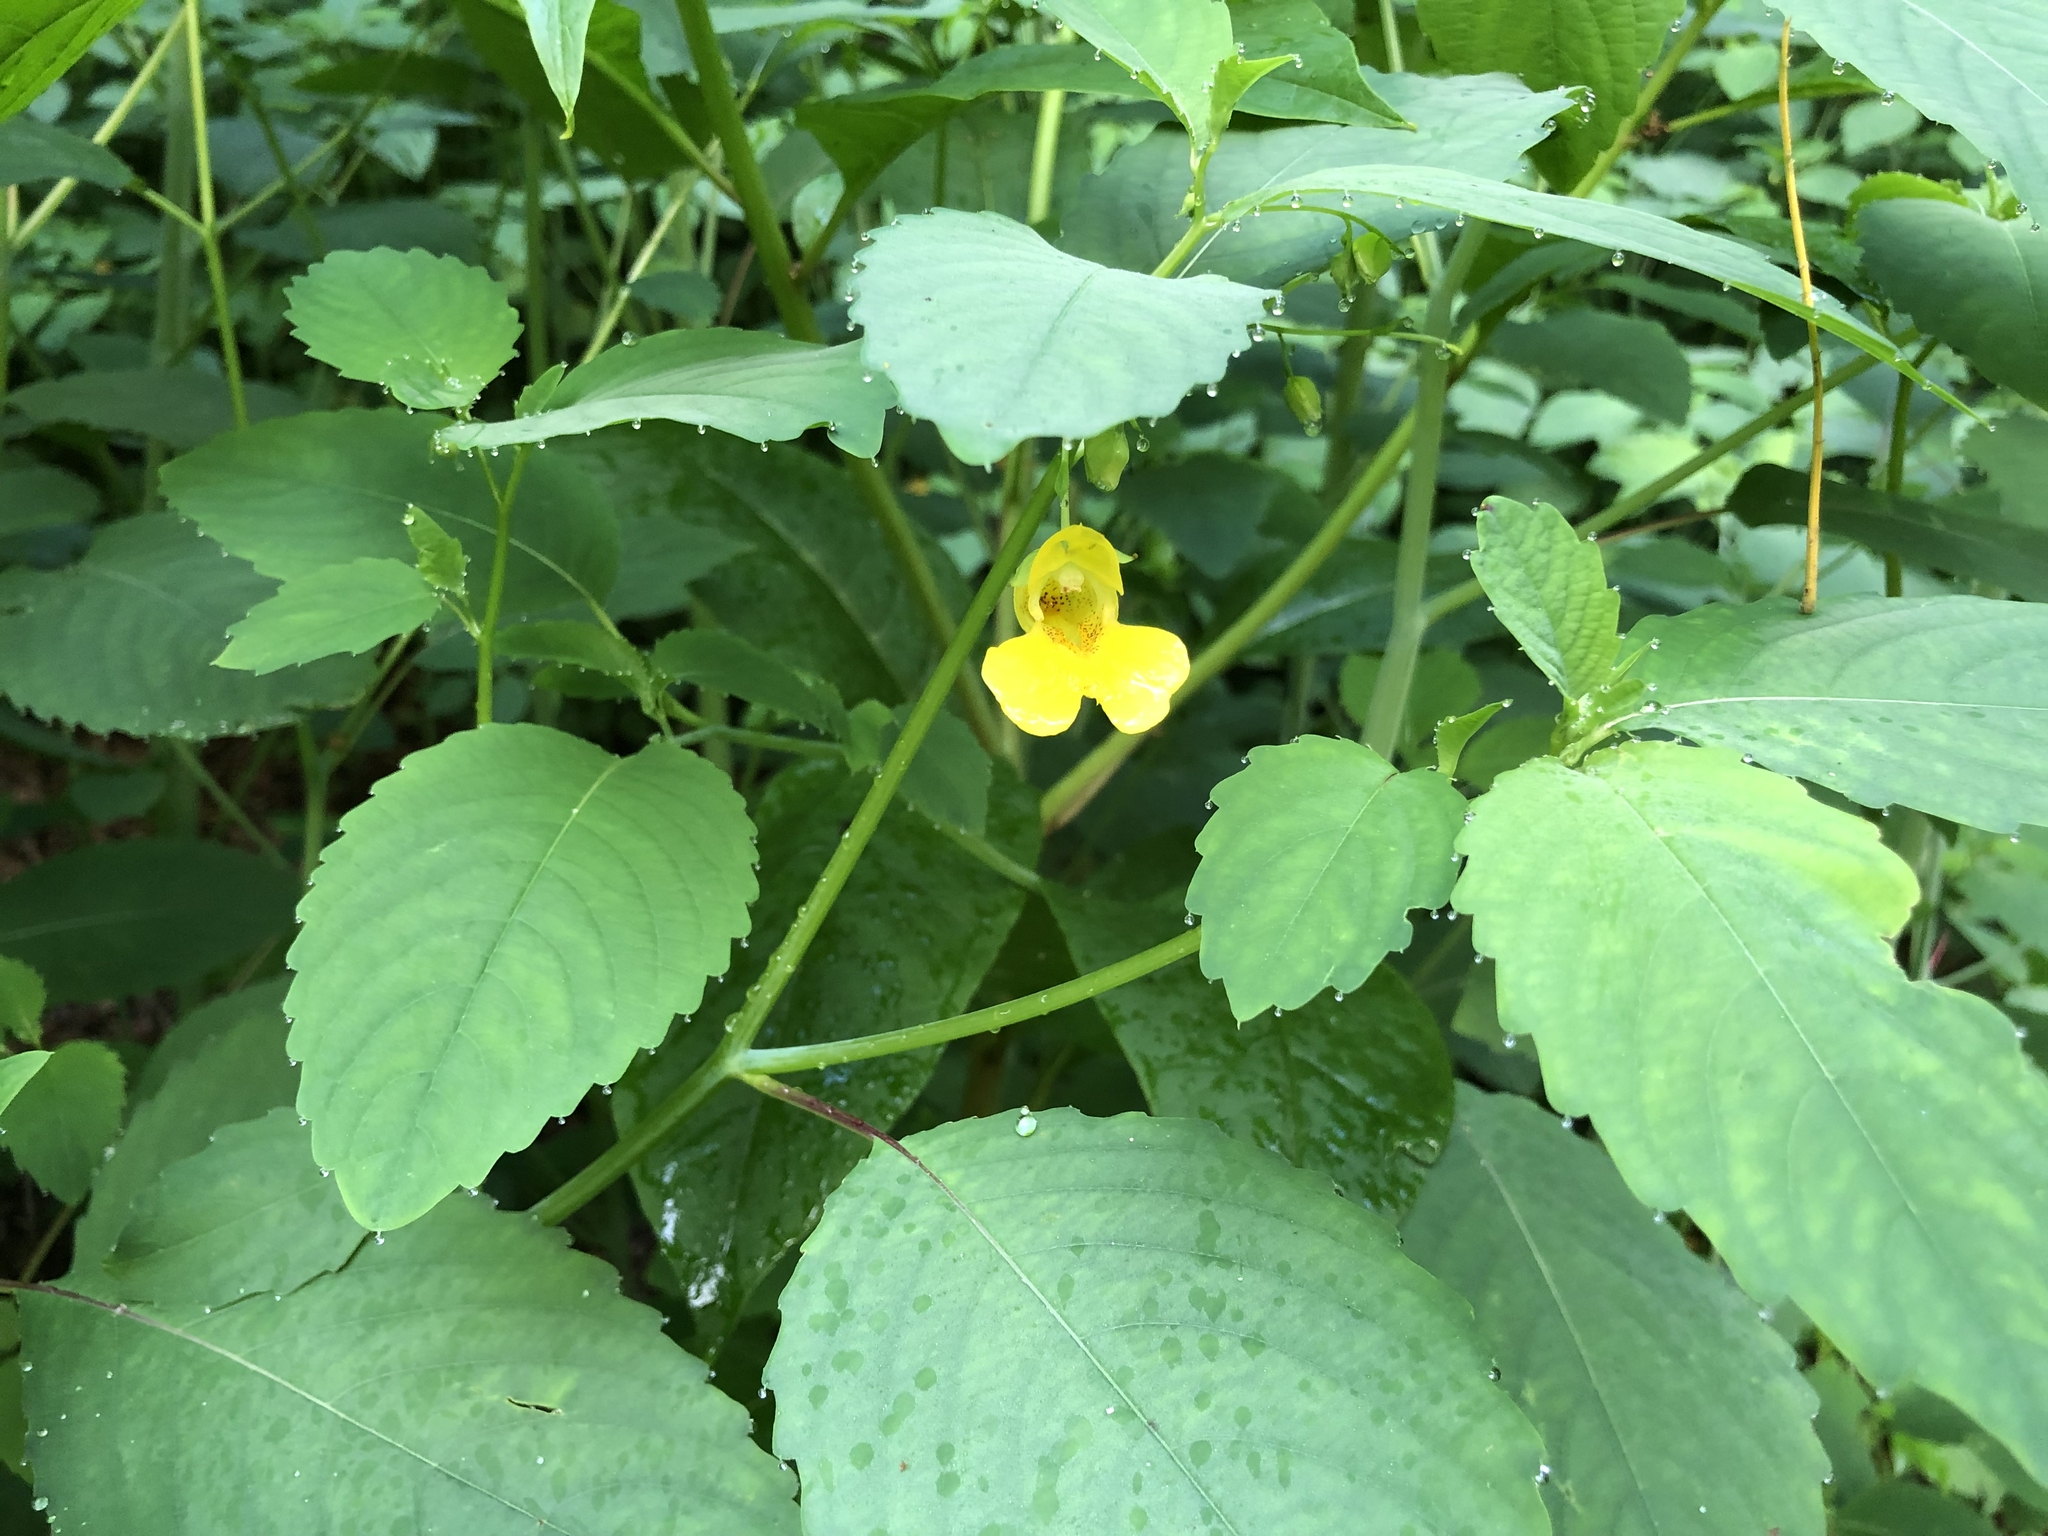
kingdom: Plantae
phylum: Tracheophyta
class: Magnoliopsida
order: Ericales
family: Balsaminaceae
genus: Impatiens
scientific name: Impatiens pallida
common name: Pale snapweed
